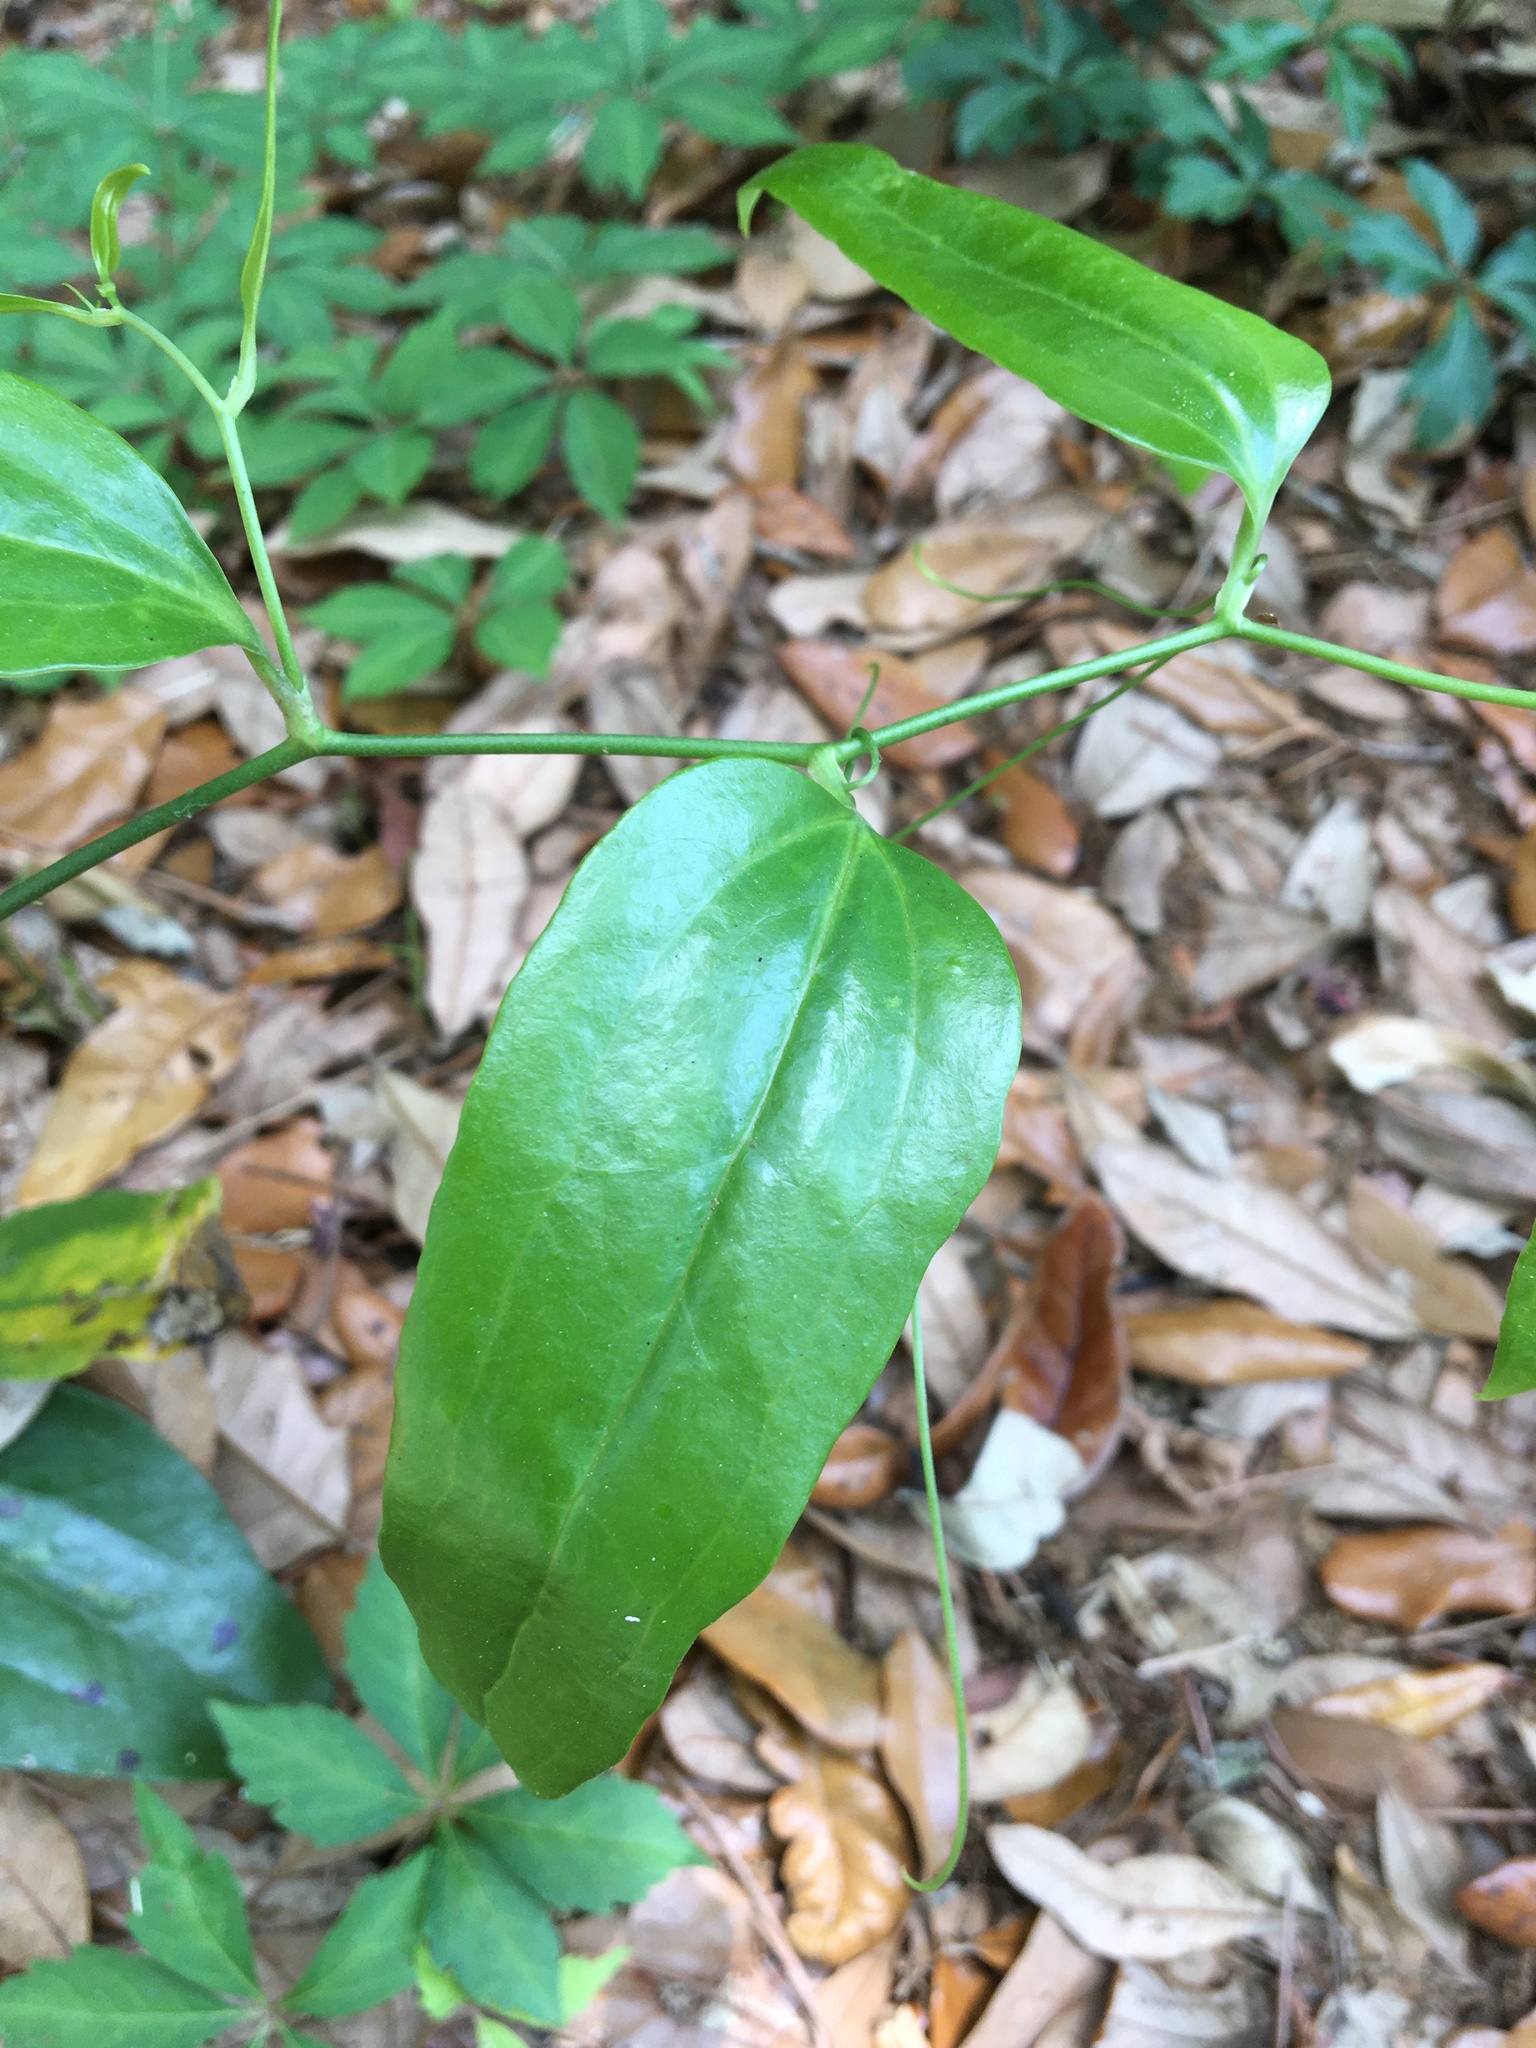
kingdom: Plantae
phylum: Tracheophyta
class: Liliopsida
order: Liliales
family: Smilacaceae
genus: Smilax
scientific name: Smilax maritima
